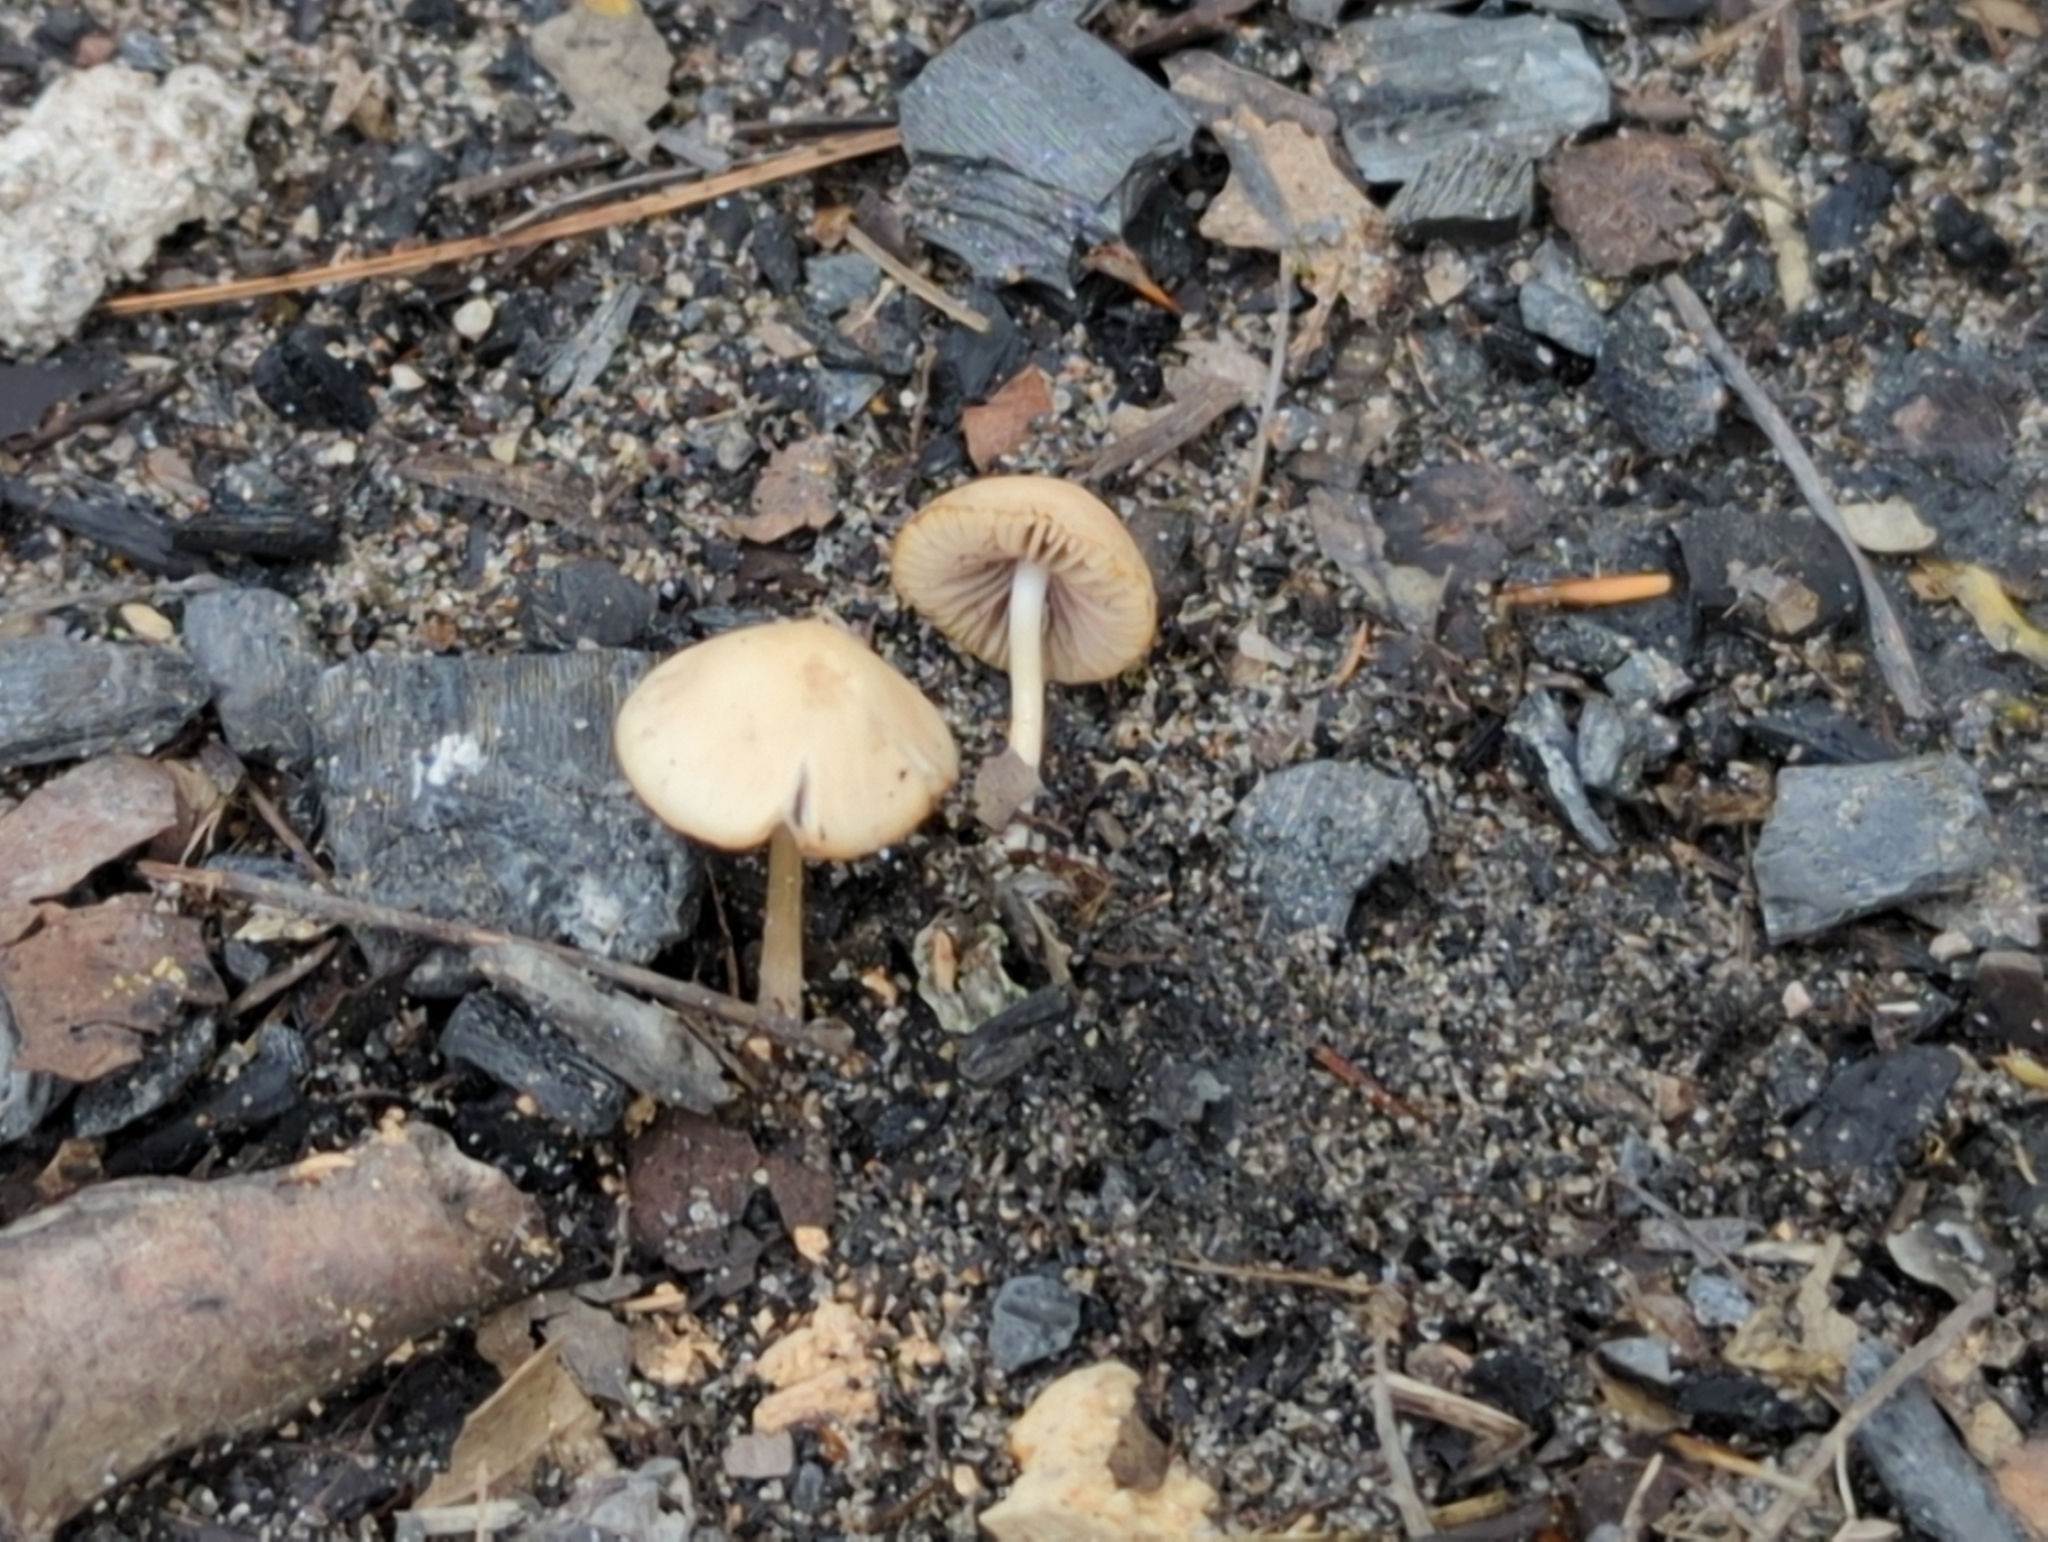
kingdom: Fungi
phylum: Basidiomycota
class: Agaricomycetes
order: Agaricales
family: Psathyrellaceae
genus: Psathyrella
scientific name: Psathyrella pseudogracilis
